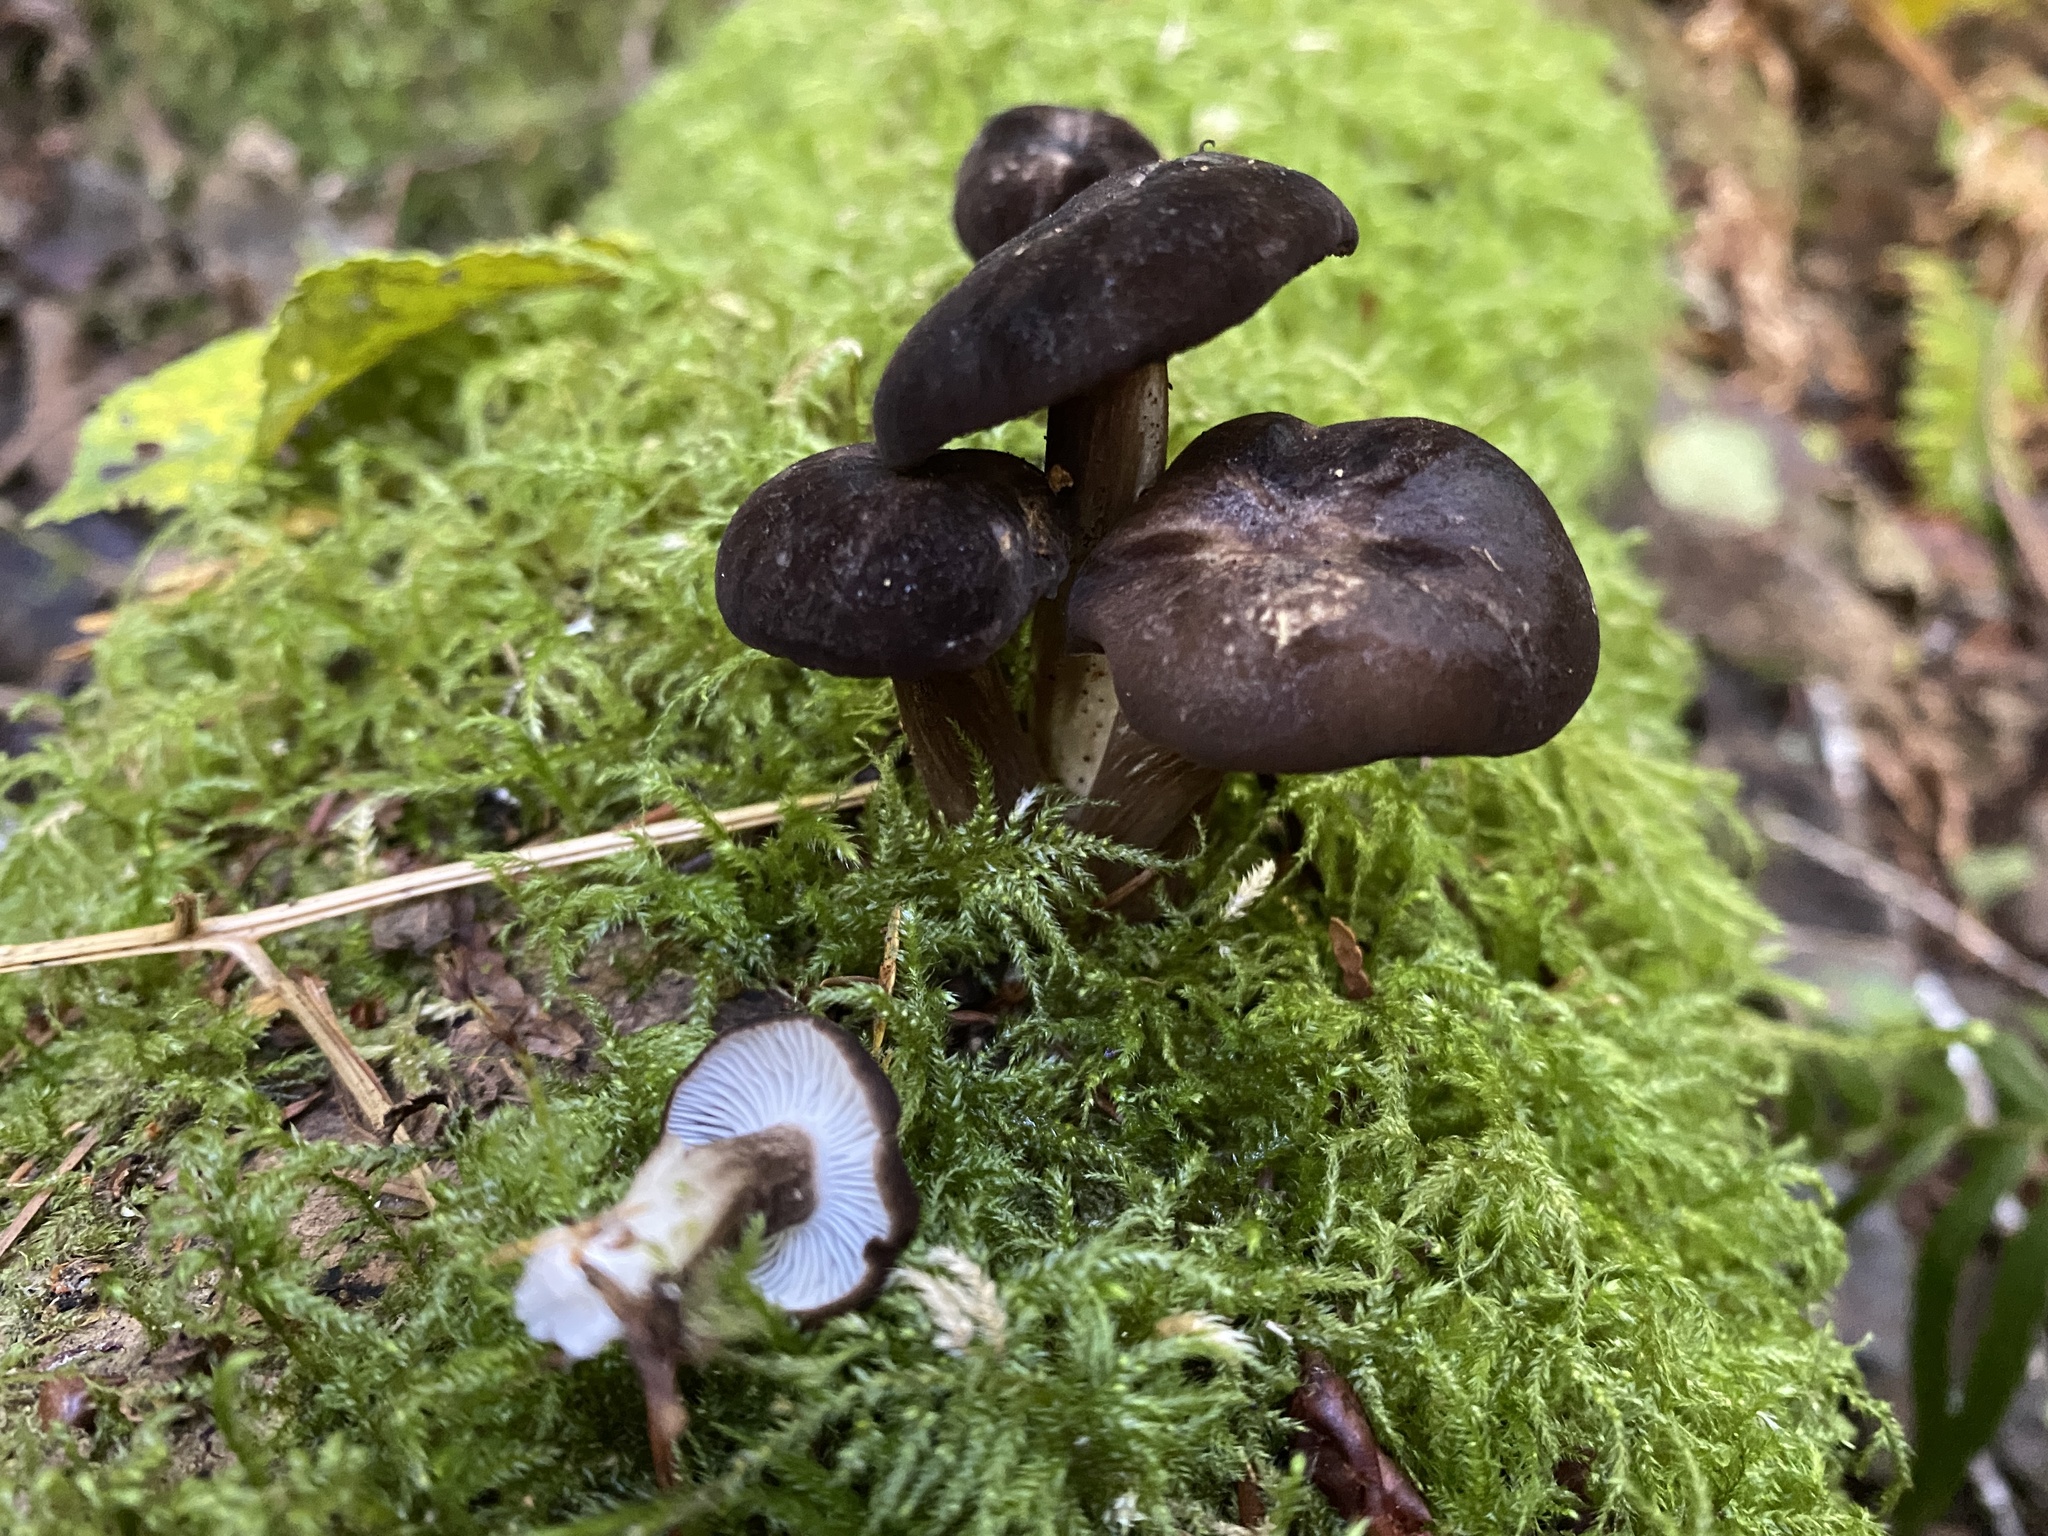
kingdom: Fungi
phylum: Basidiomycota
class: Agaricomycetes
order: Russulales
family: Russulaceae
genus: Lactarius
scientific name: Lactarius fallax
